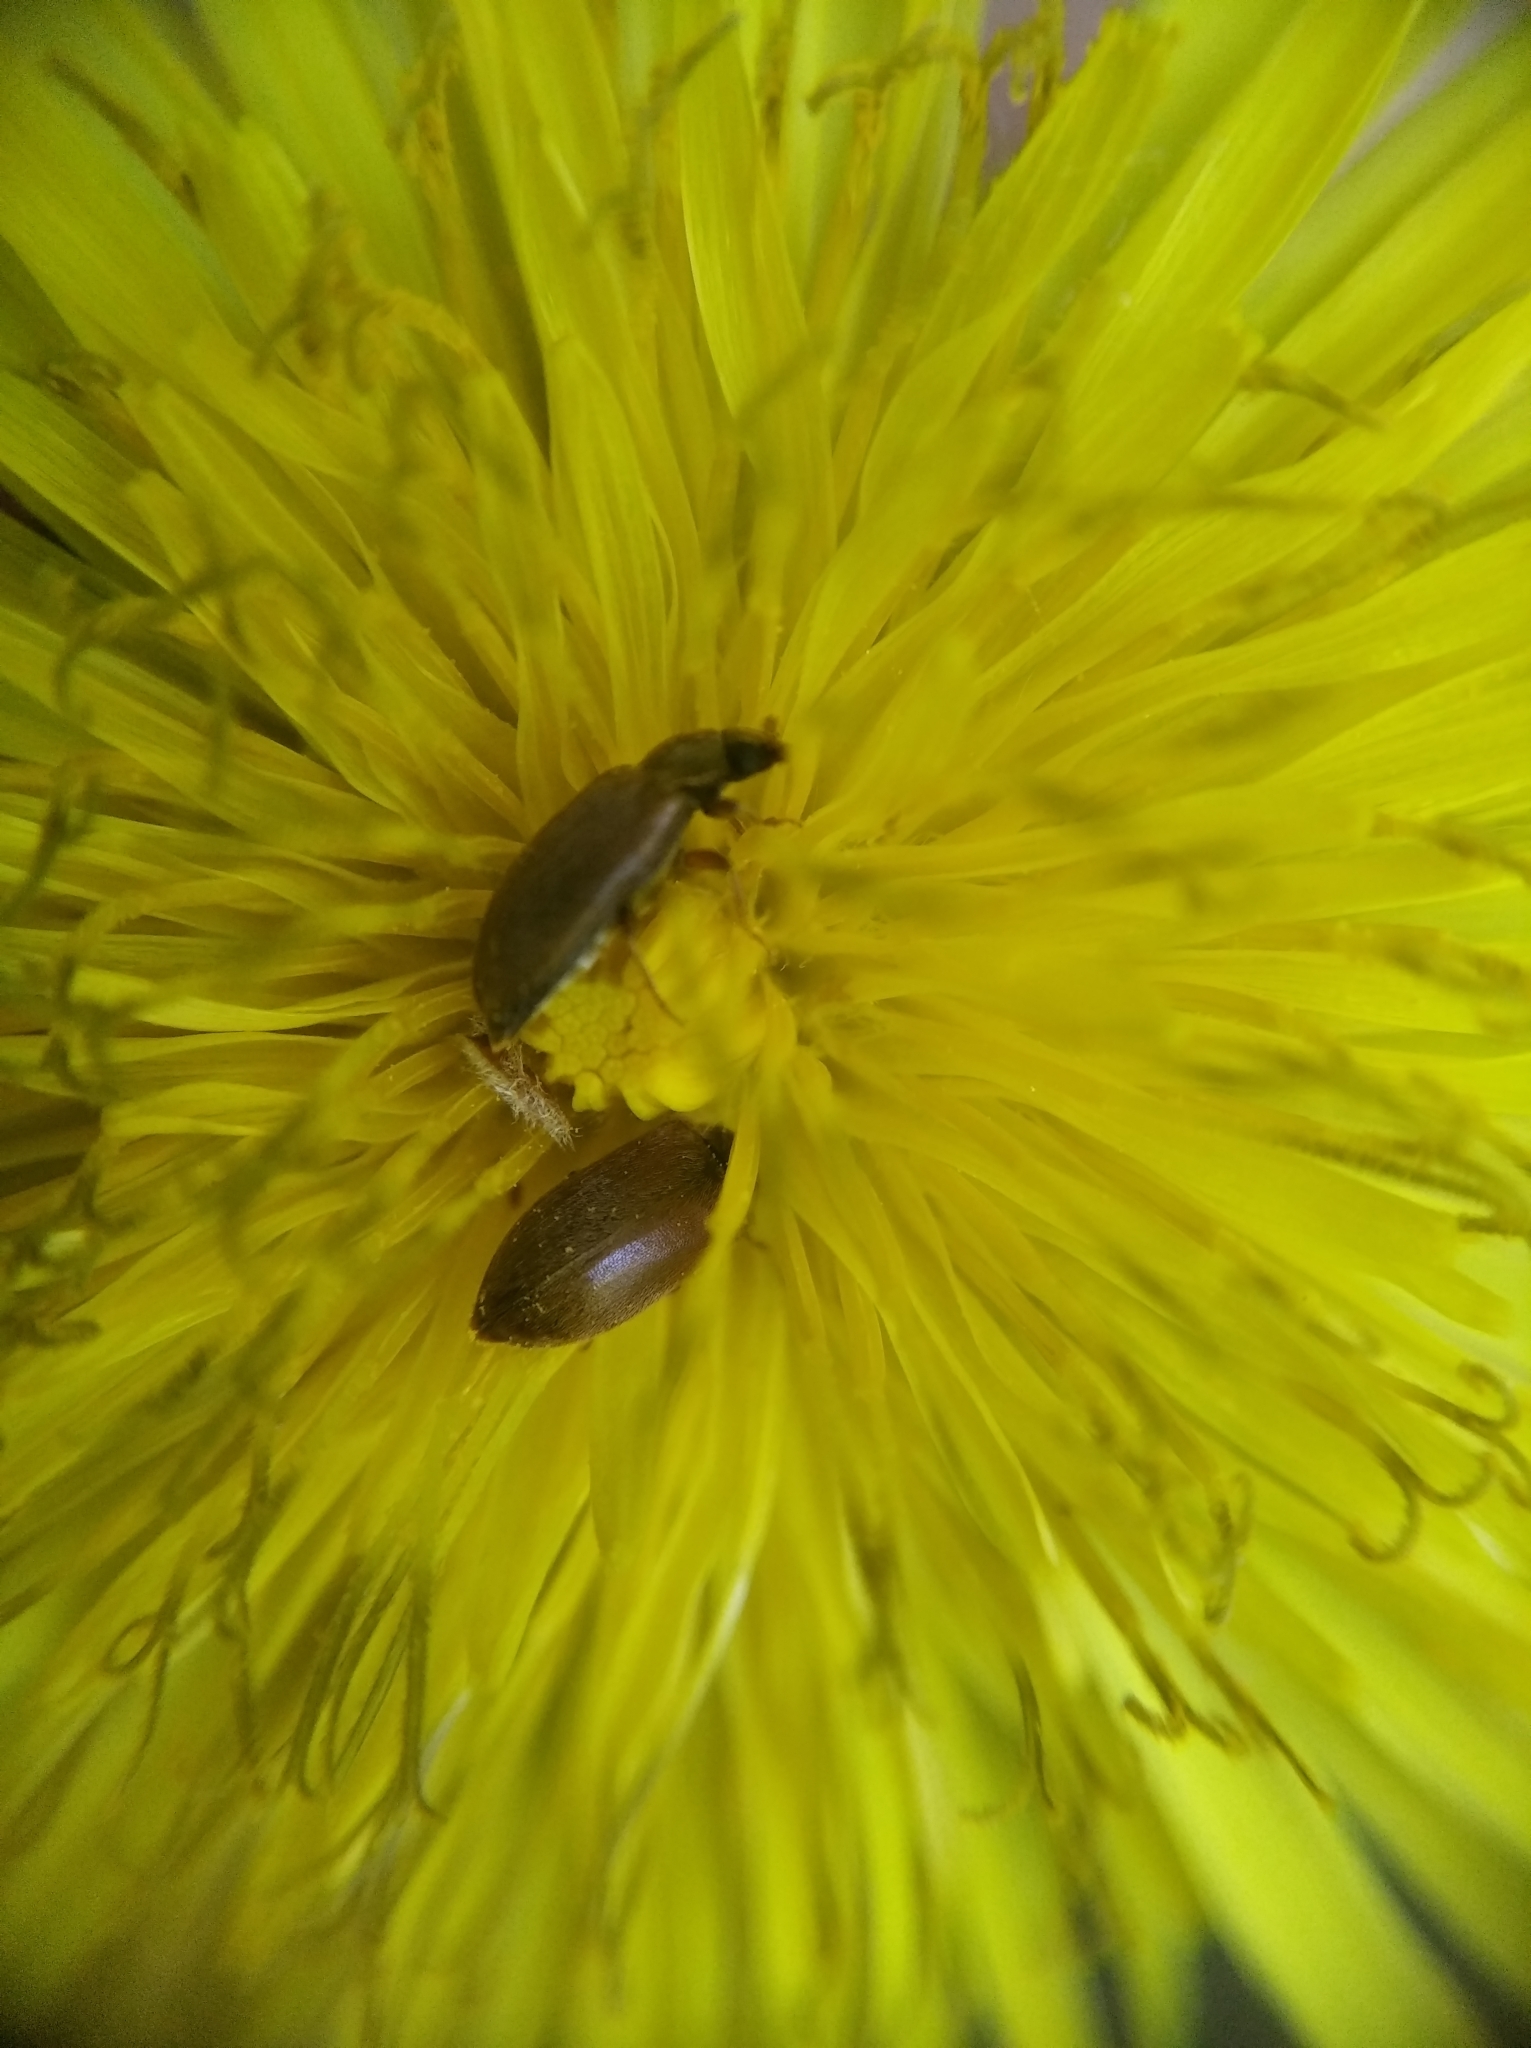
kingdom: Animalia
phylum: Arthropoda
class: Insecta
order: Coleoptera
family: Byturidae
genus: Byturus
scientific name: Byturus ochraceus
